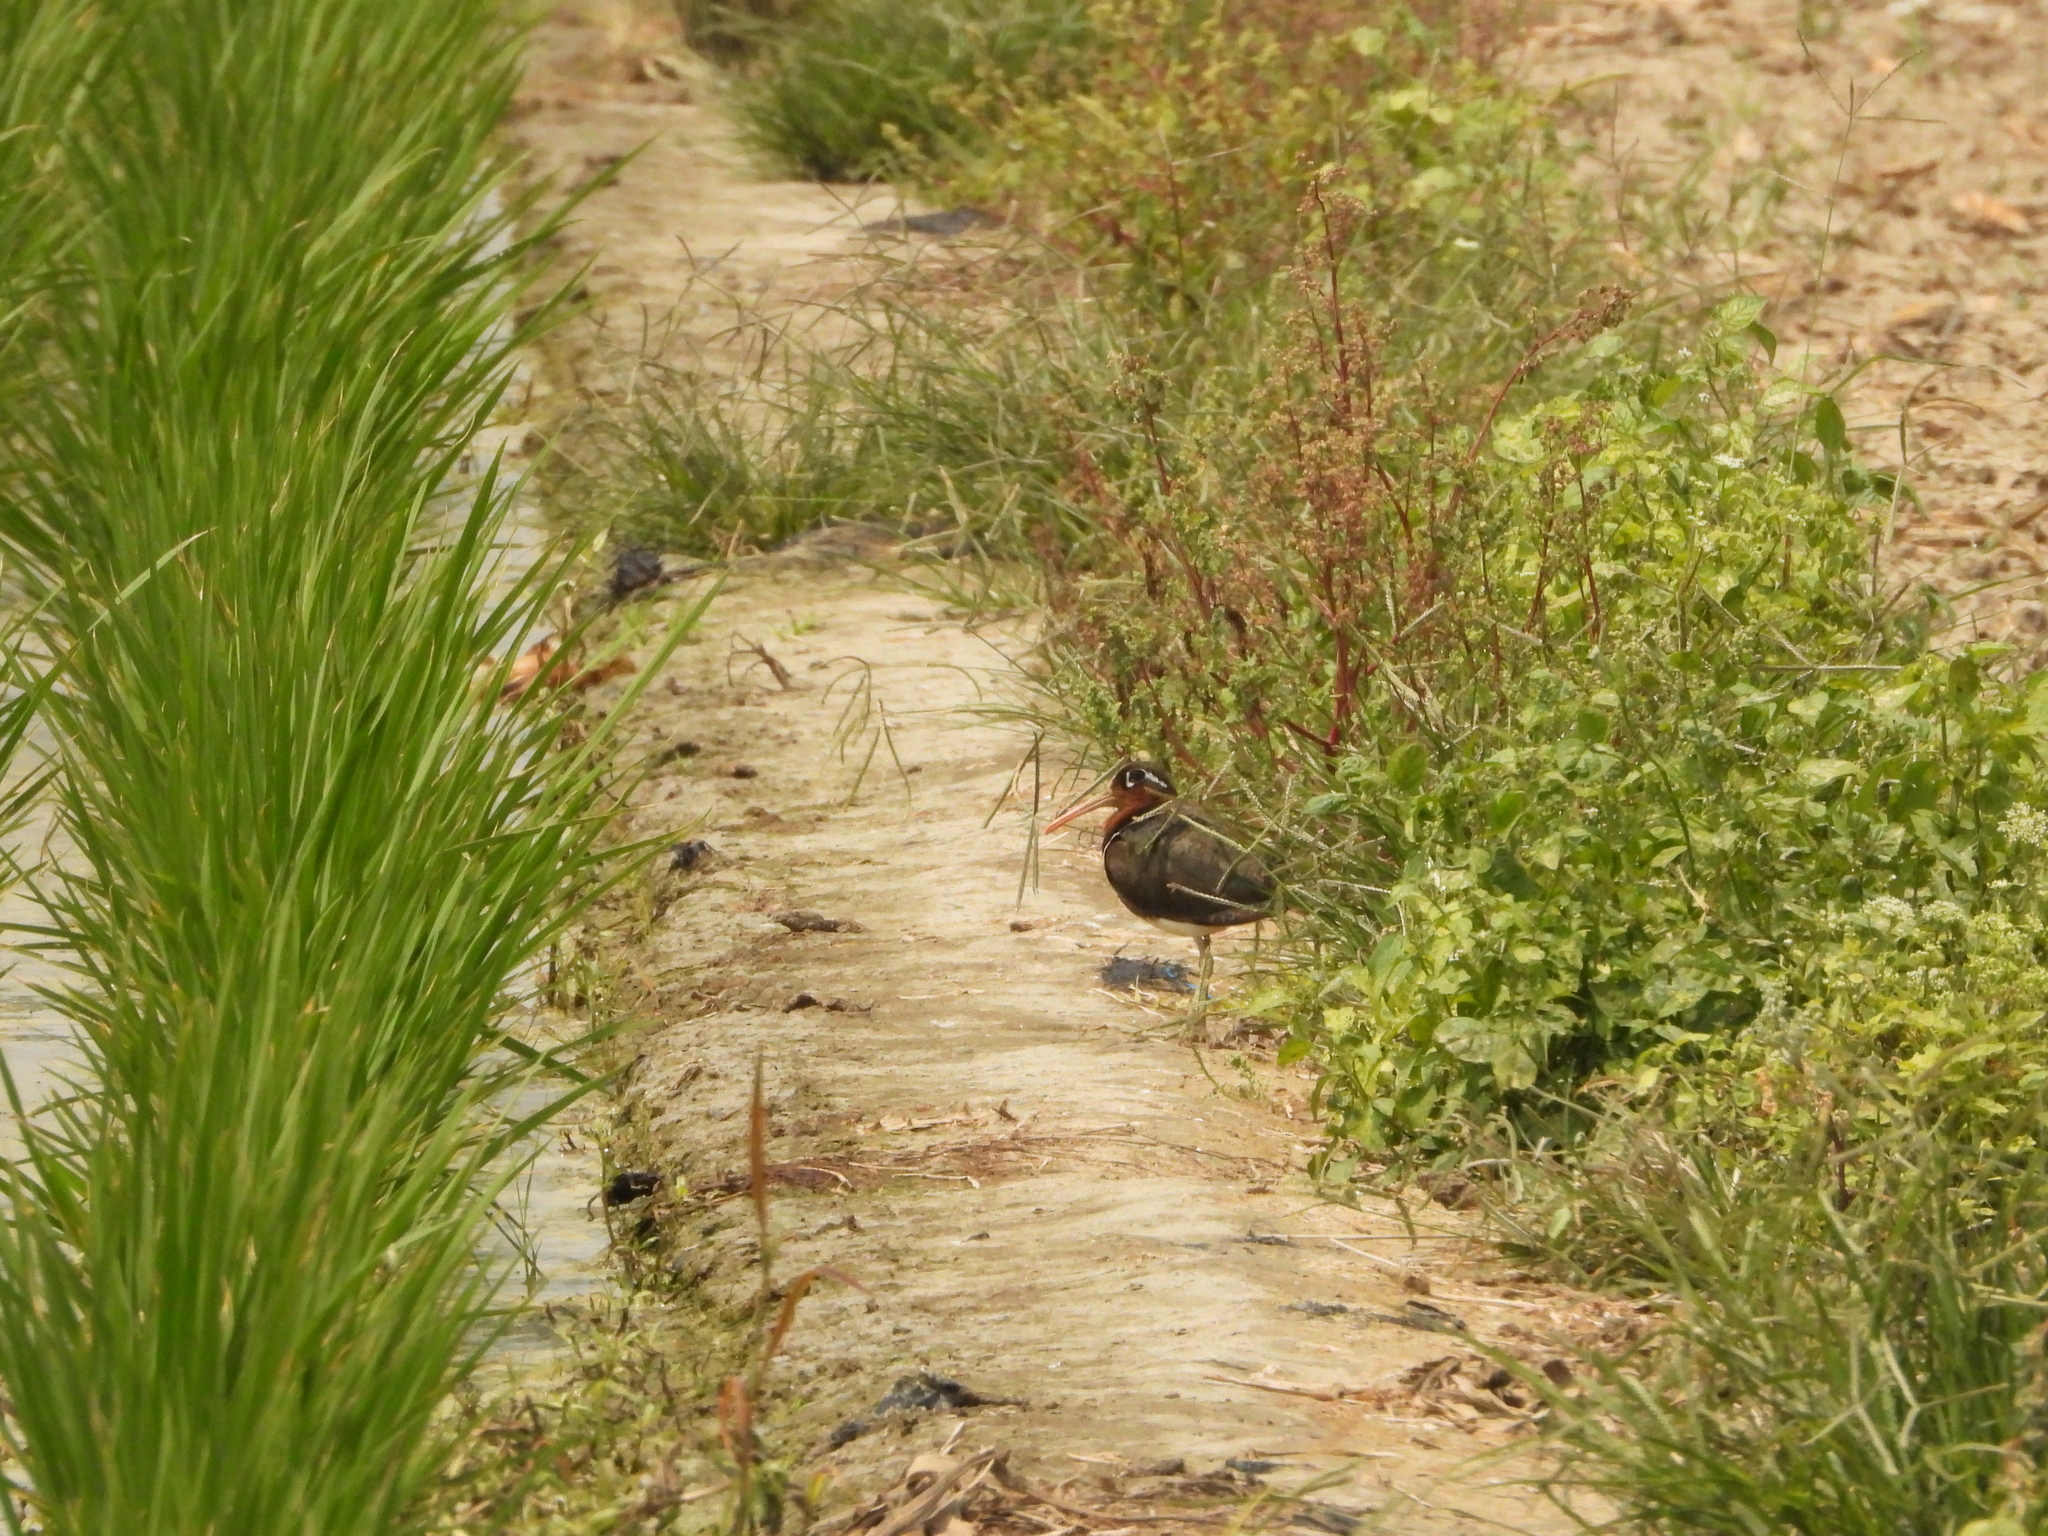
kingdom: Animalia
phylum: Chordata
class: Aves
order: Charadriiformes
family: Rostratulidae
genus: Rostratula
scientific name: Rostratula benghalensis
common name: Greater painted-snipe
